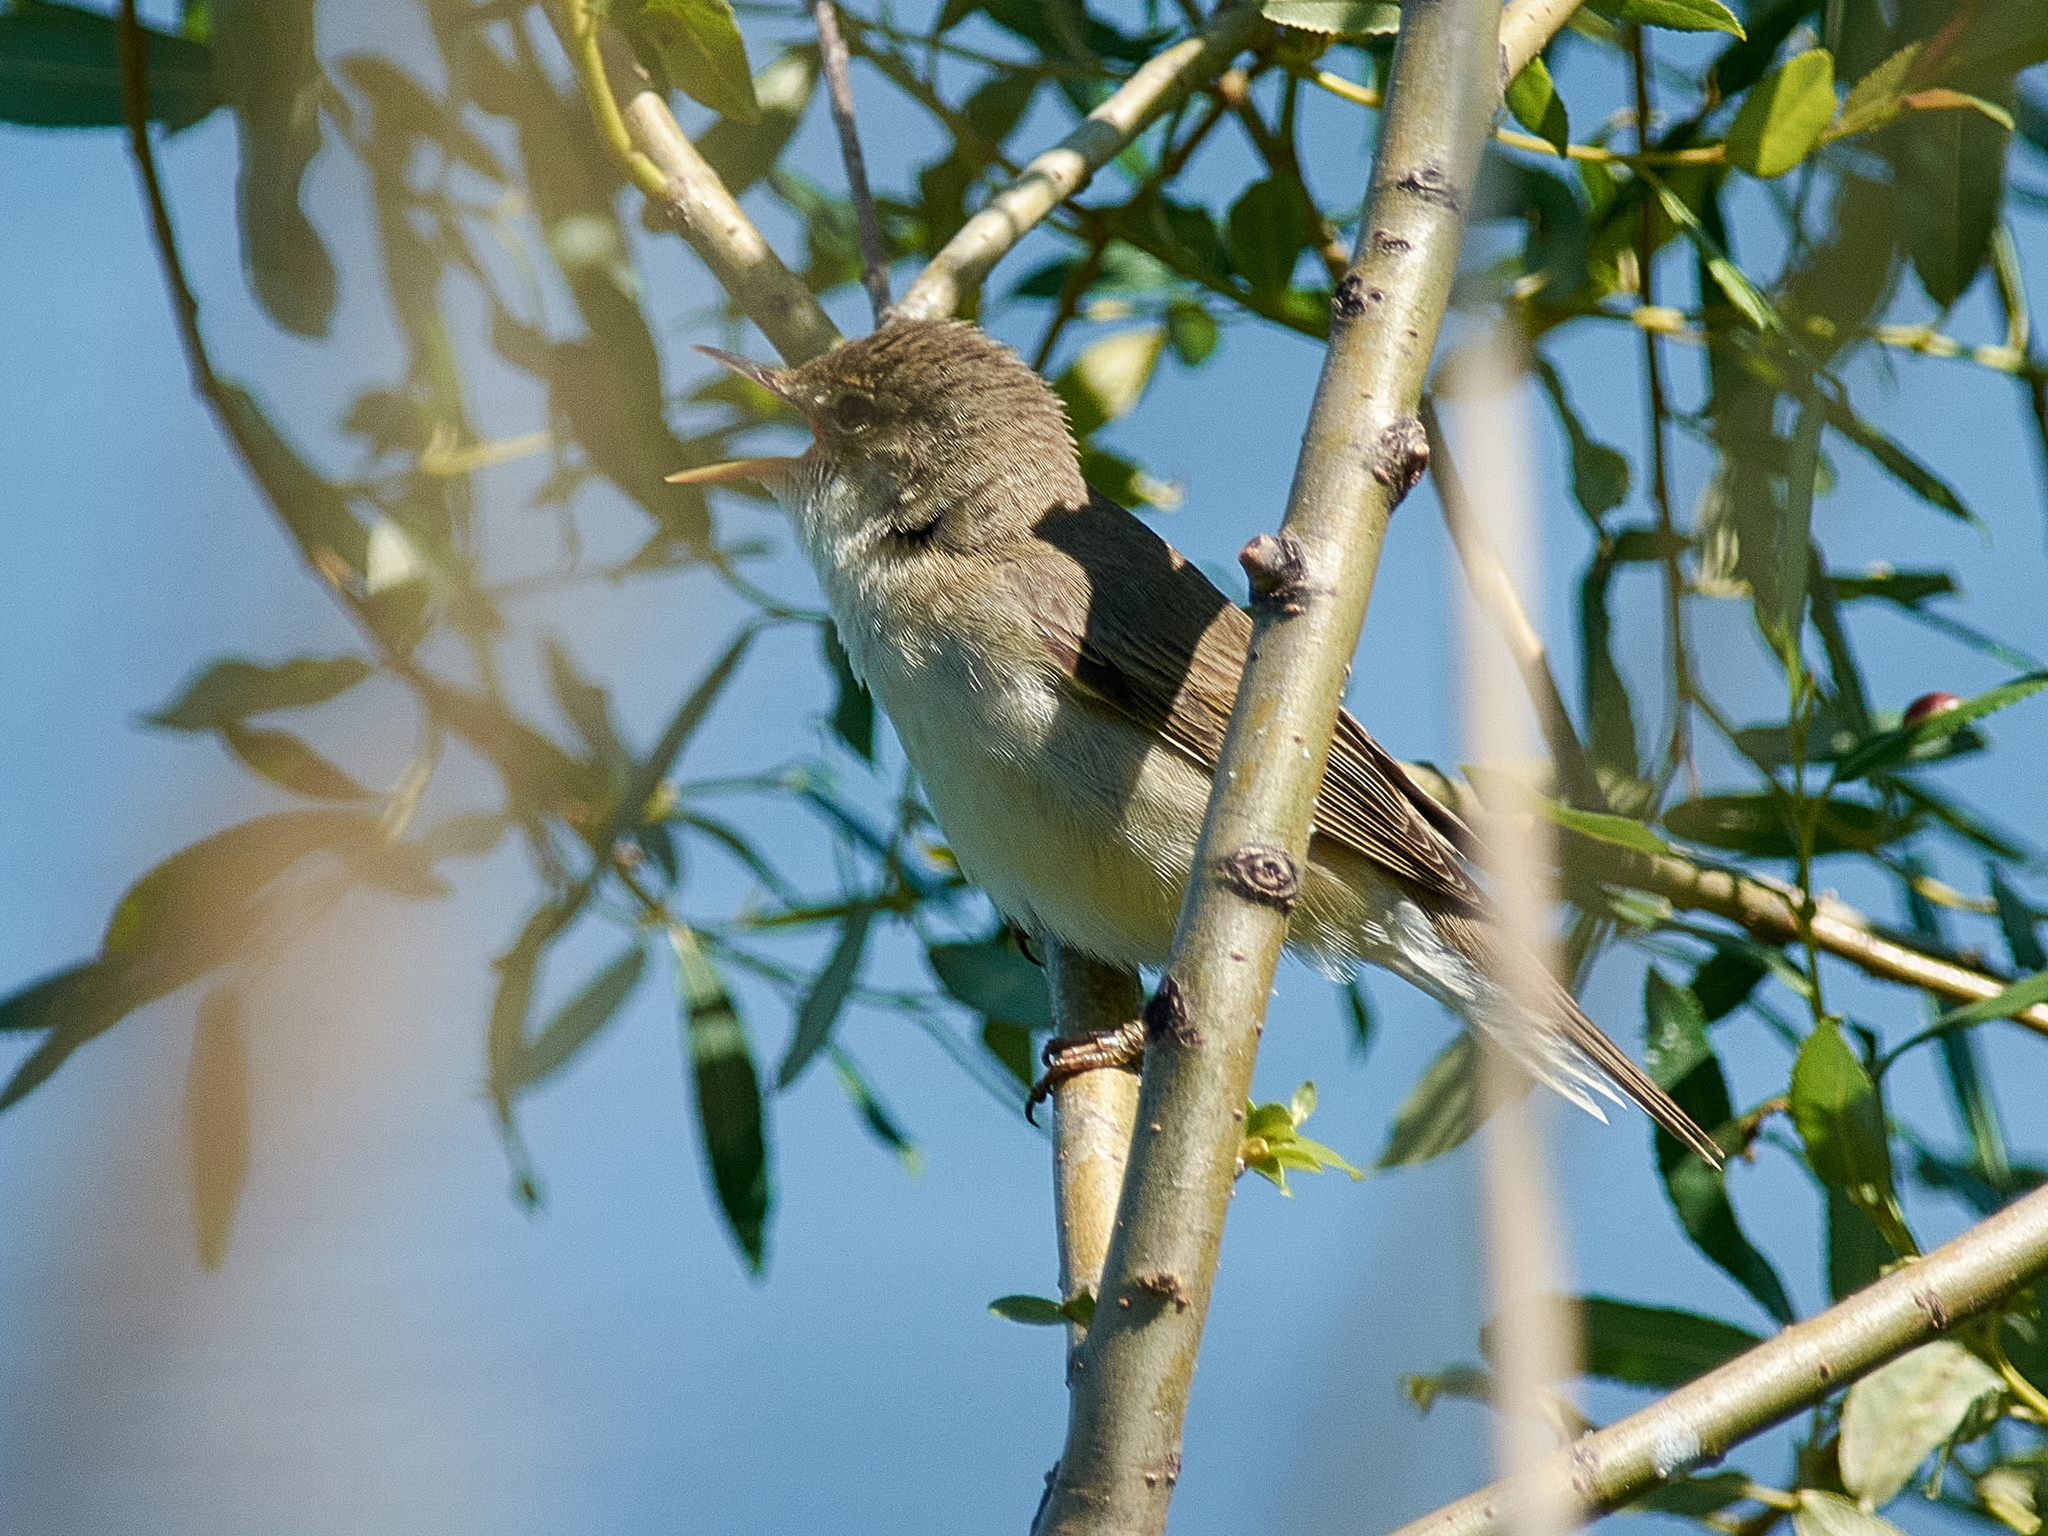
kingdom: Animalia
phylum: Chordata
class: Aves
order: Passeriformes
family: Acrocephalidae
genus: Acrocephalus
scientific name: Acrocephalus palustris
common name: Marsh warbler
